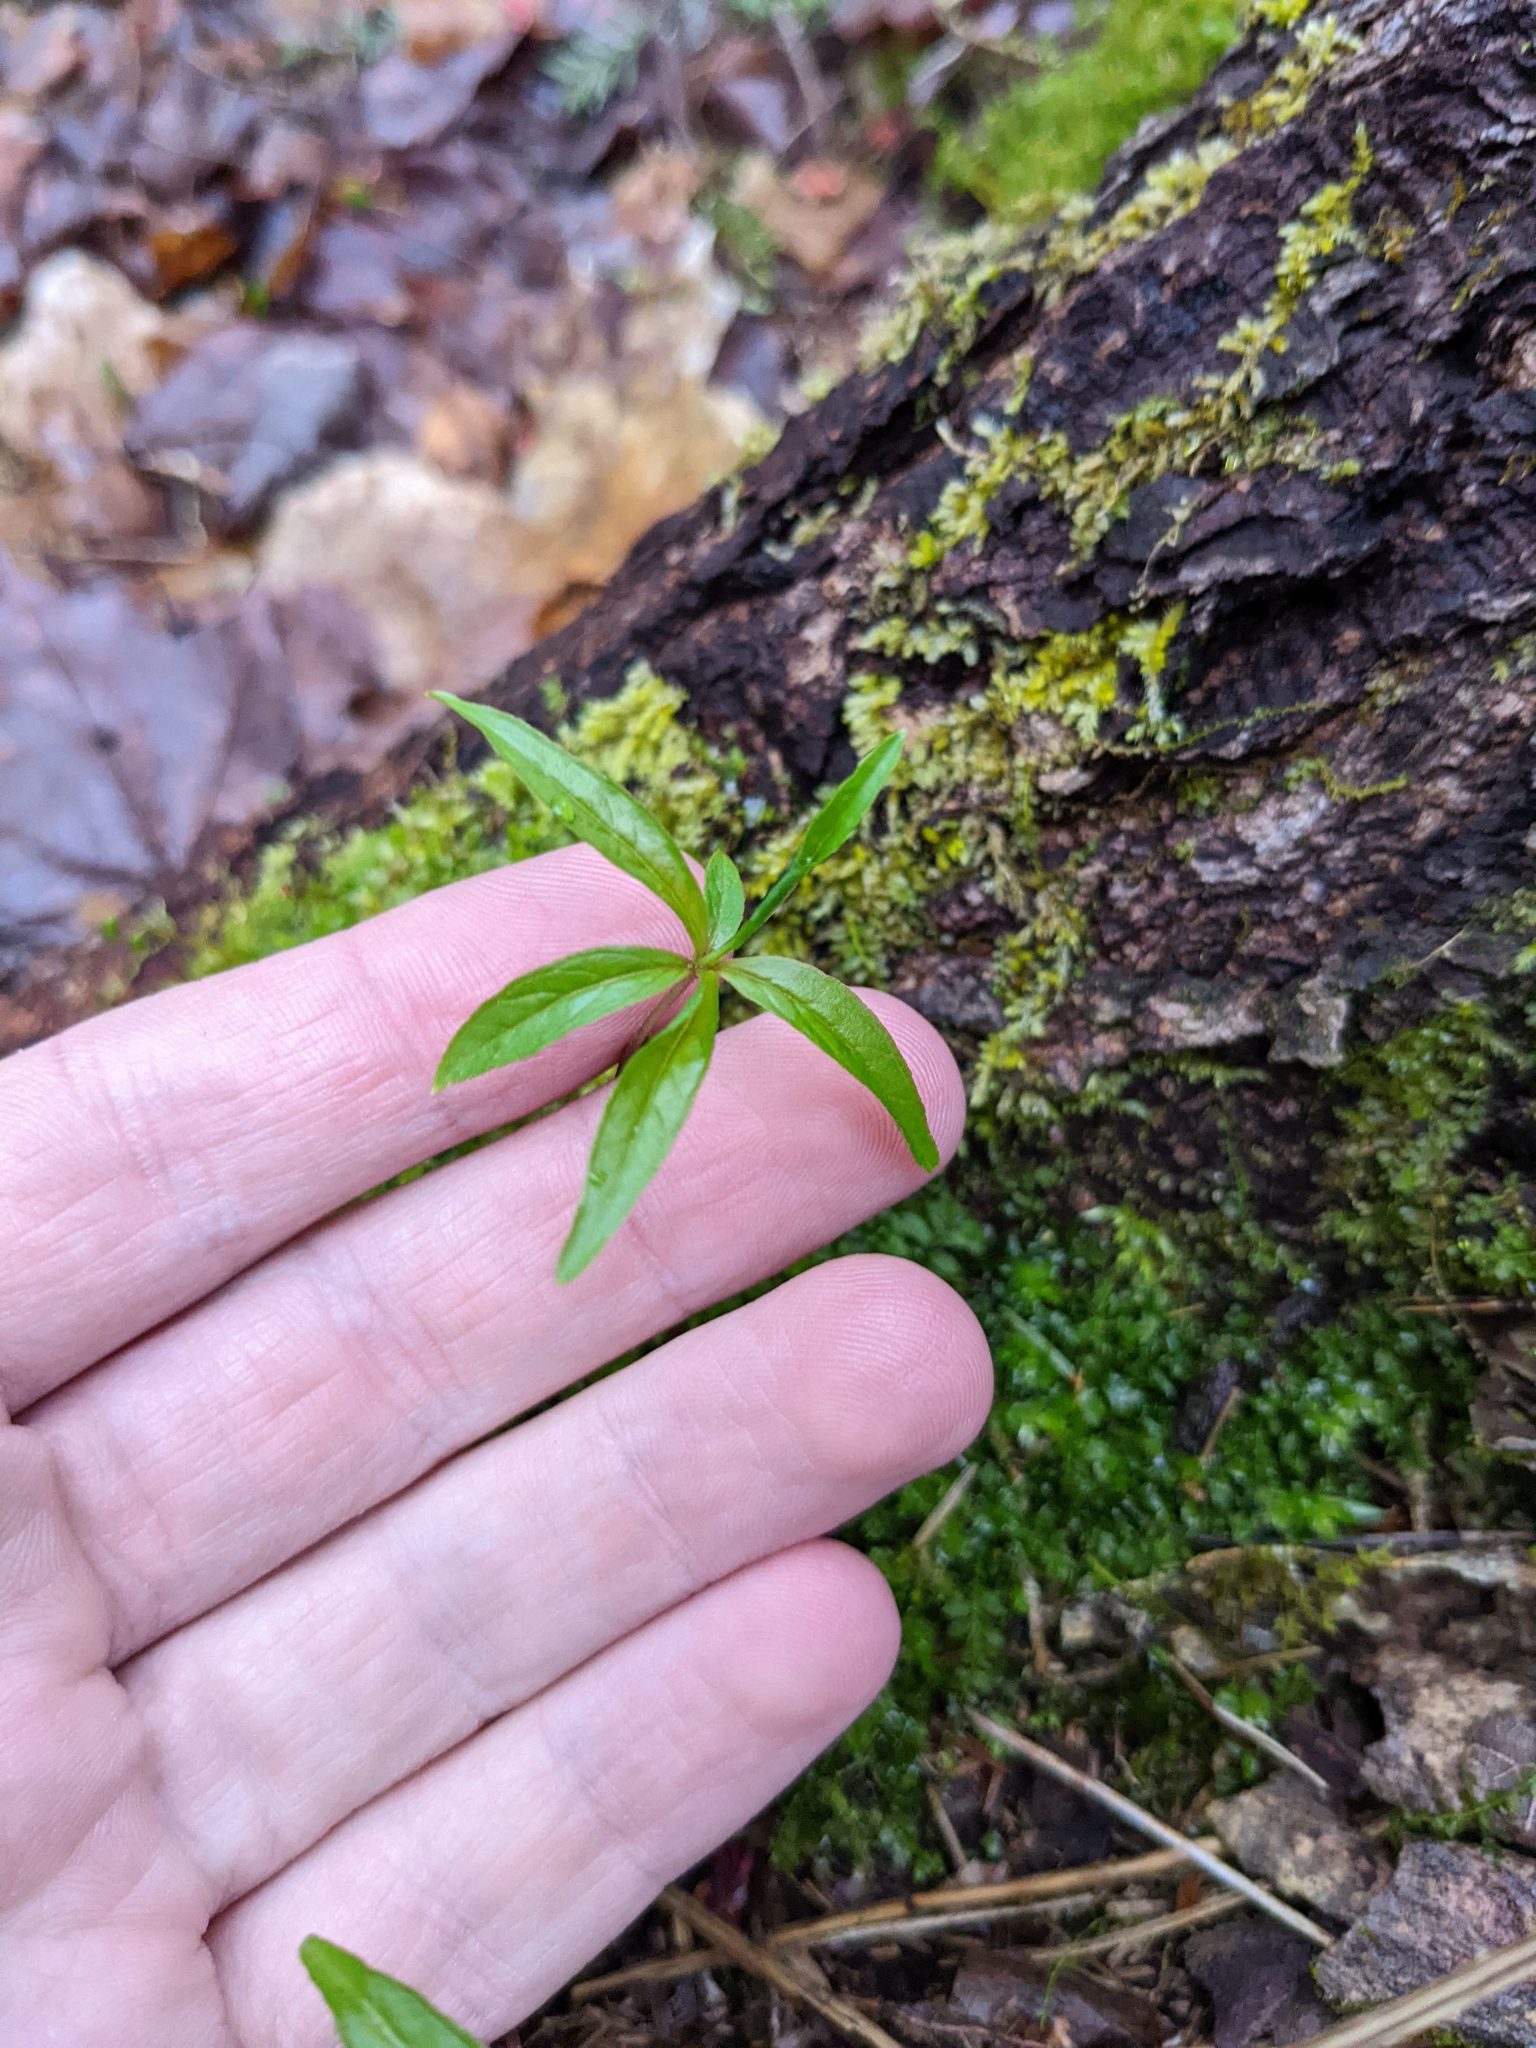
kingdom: Plantae
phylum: Tracheophyta
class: Magnoliopsida
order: Ericales
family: Primulaceae
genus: Lysimachia
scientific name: Lysimachia borealis
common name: American starflower
